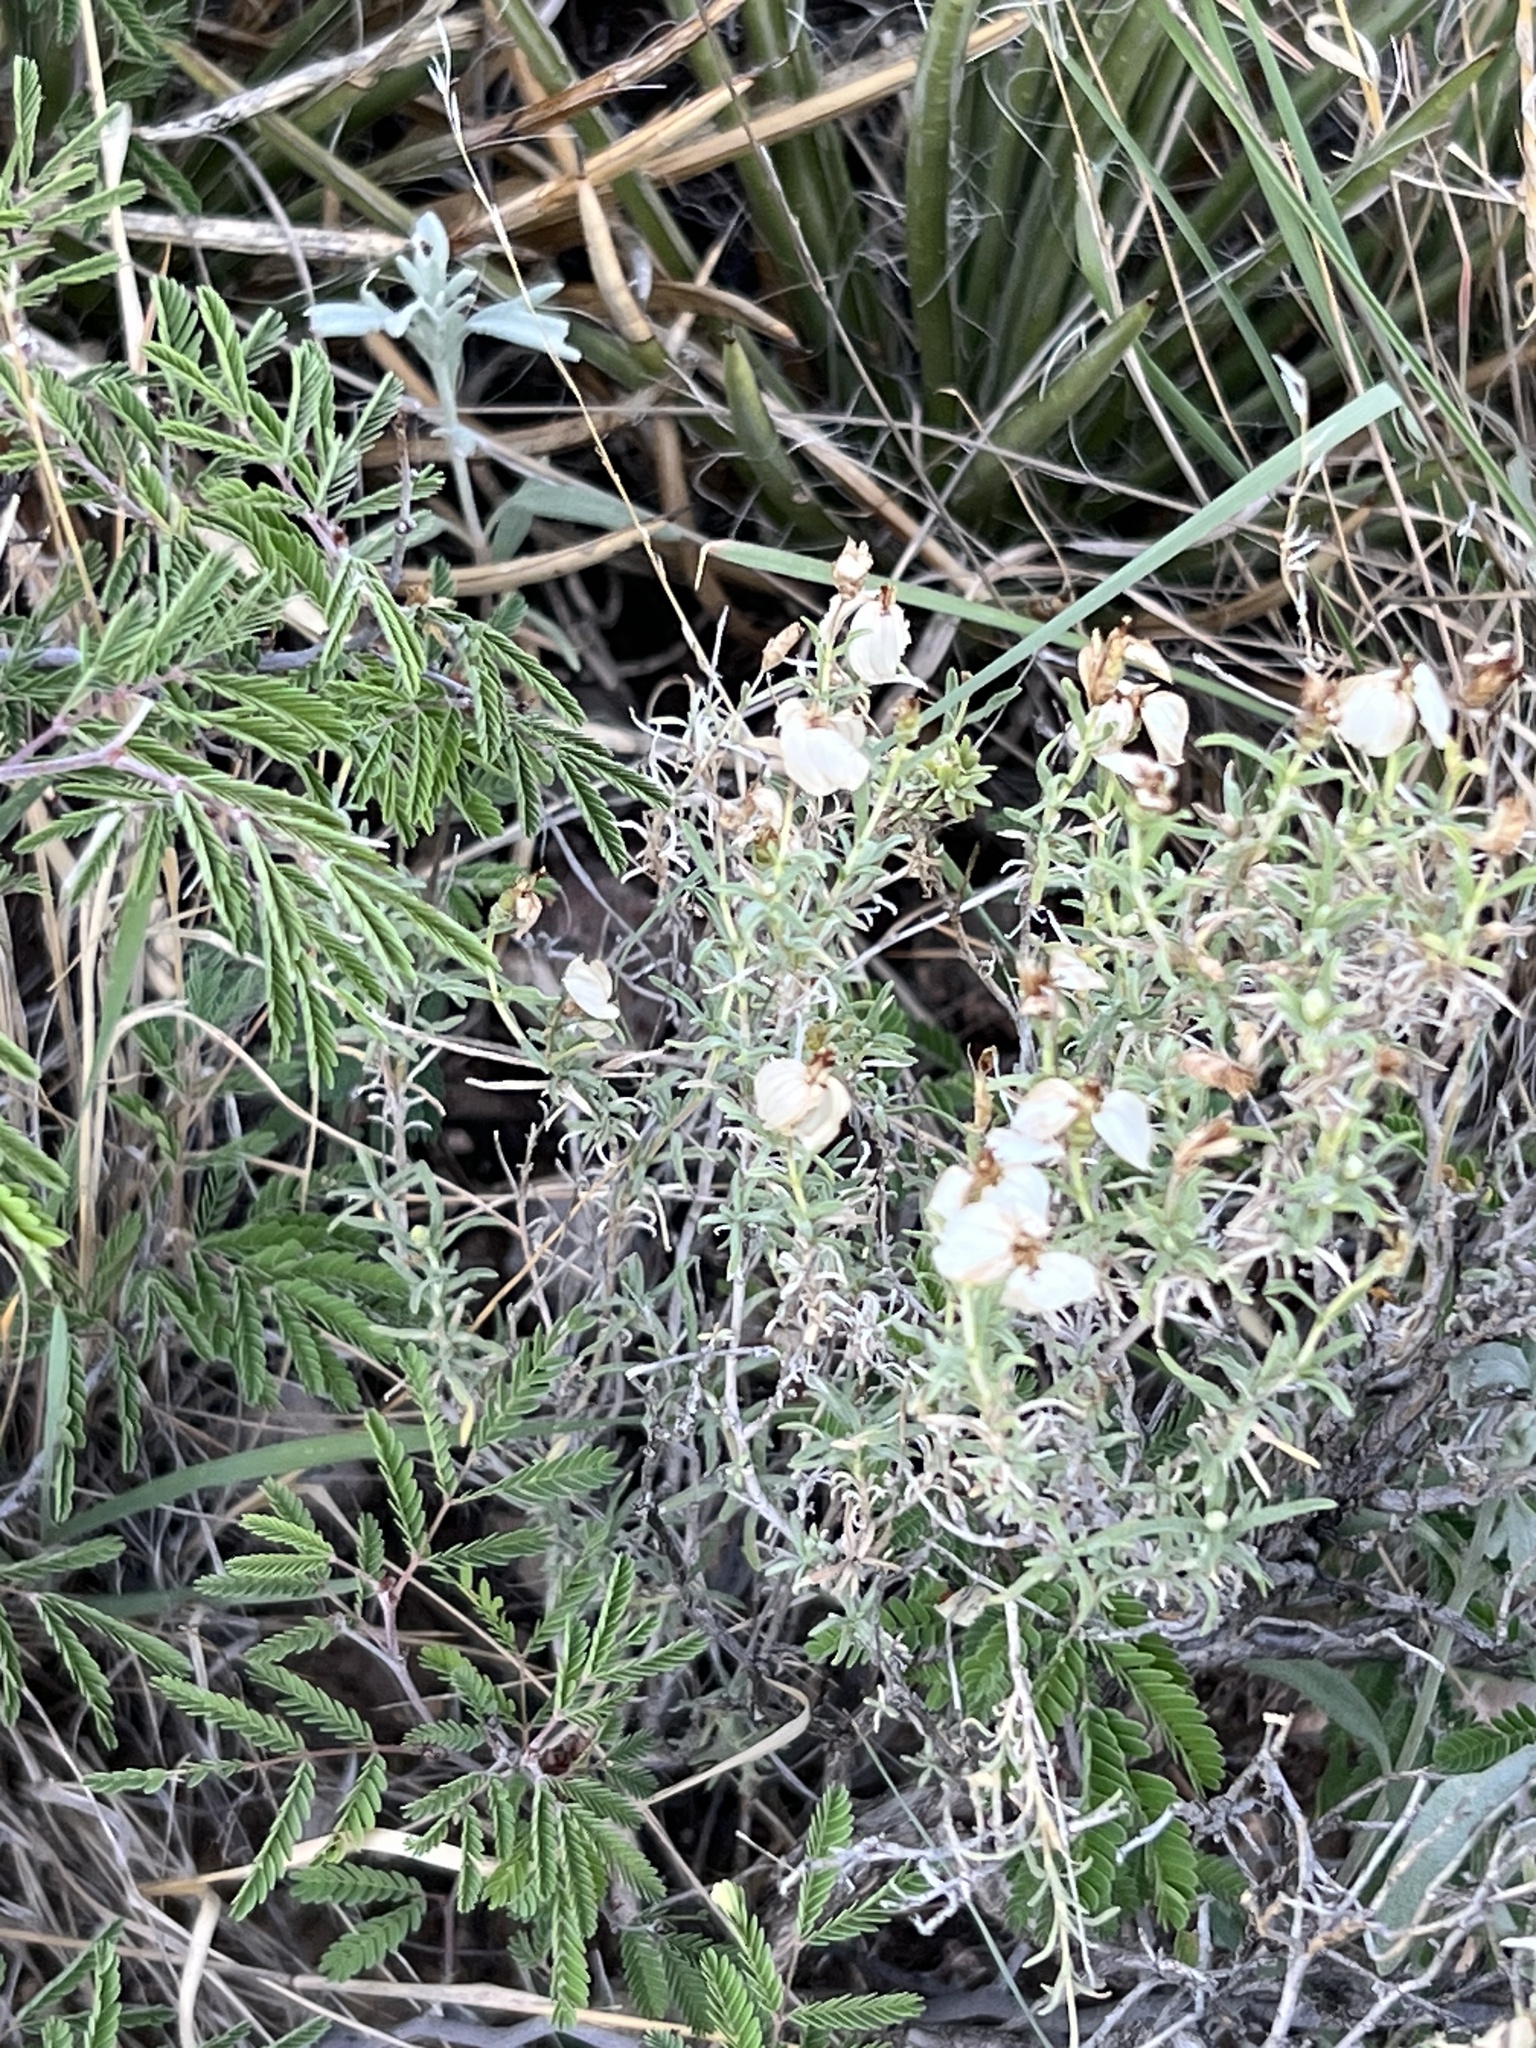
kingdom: Plantae
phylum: Tracheophyta
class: Magnoliopsida
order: Asterales
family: Asteraceae
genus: Zinnia
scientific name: Zinnia acerosa
